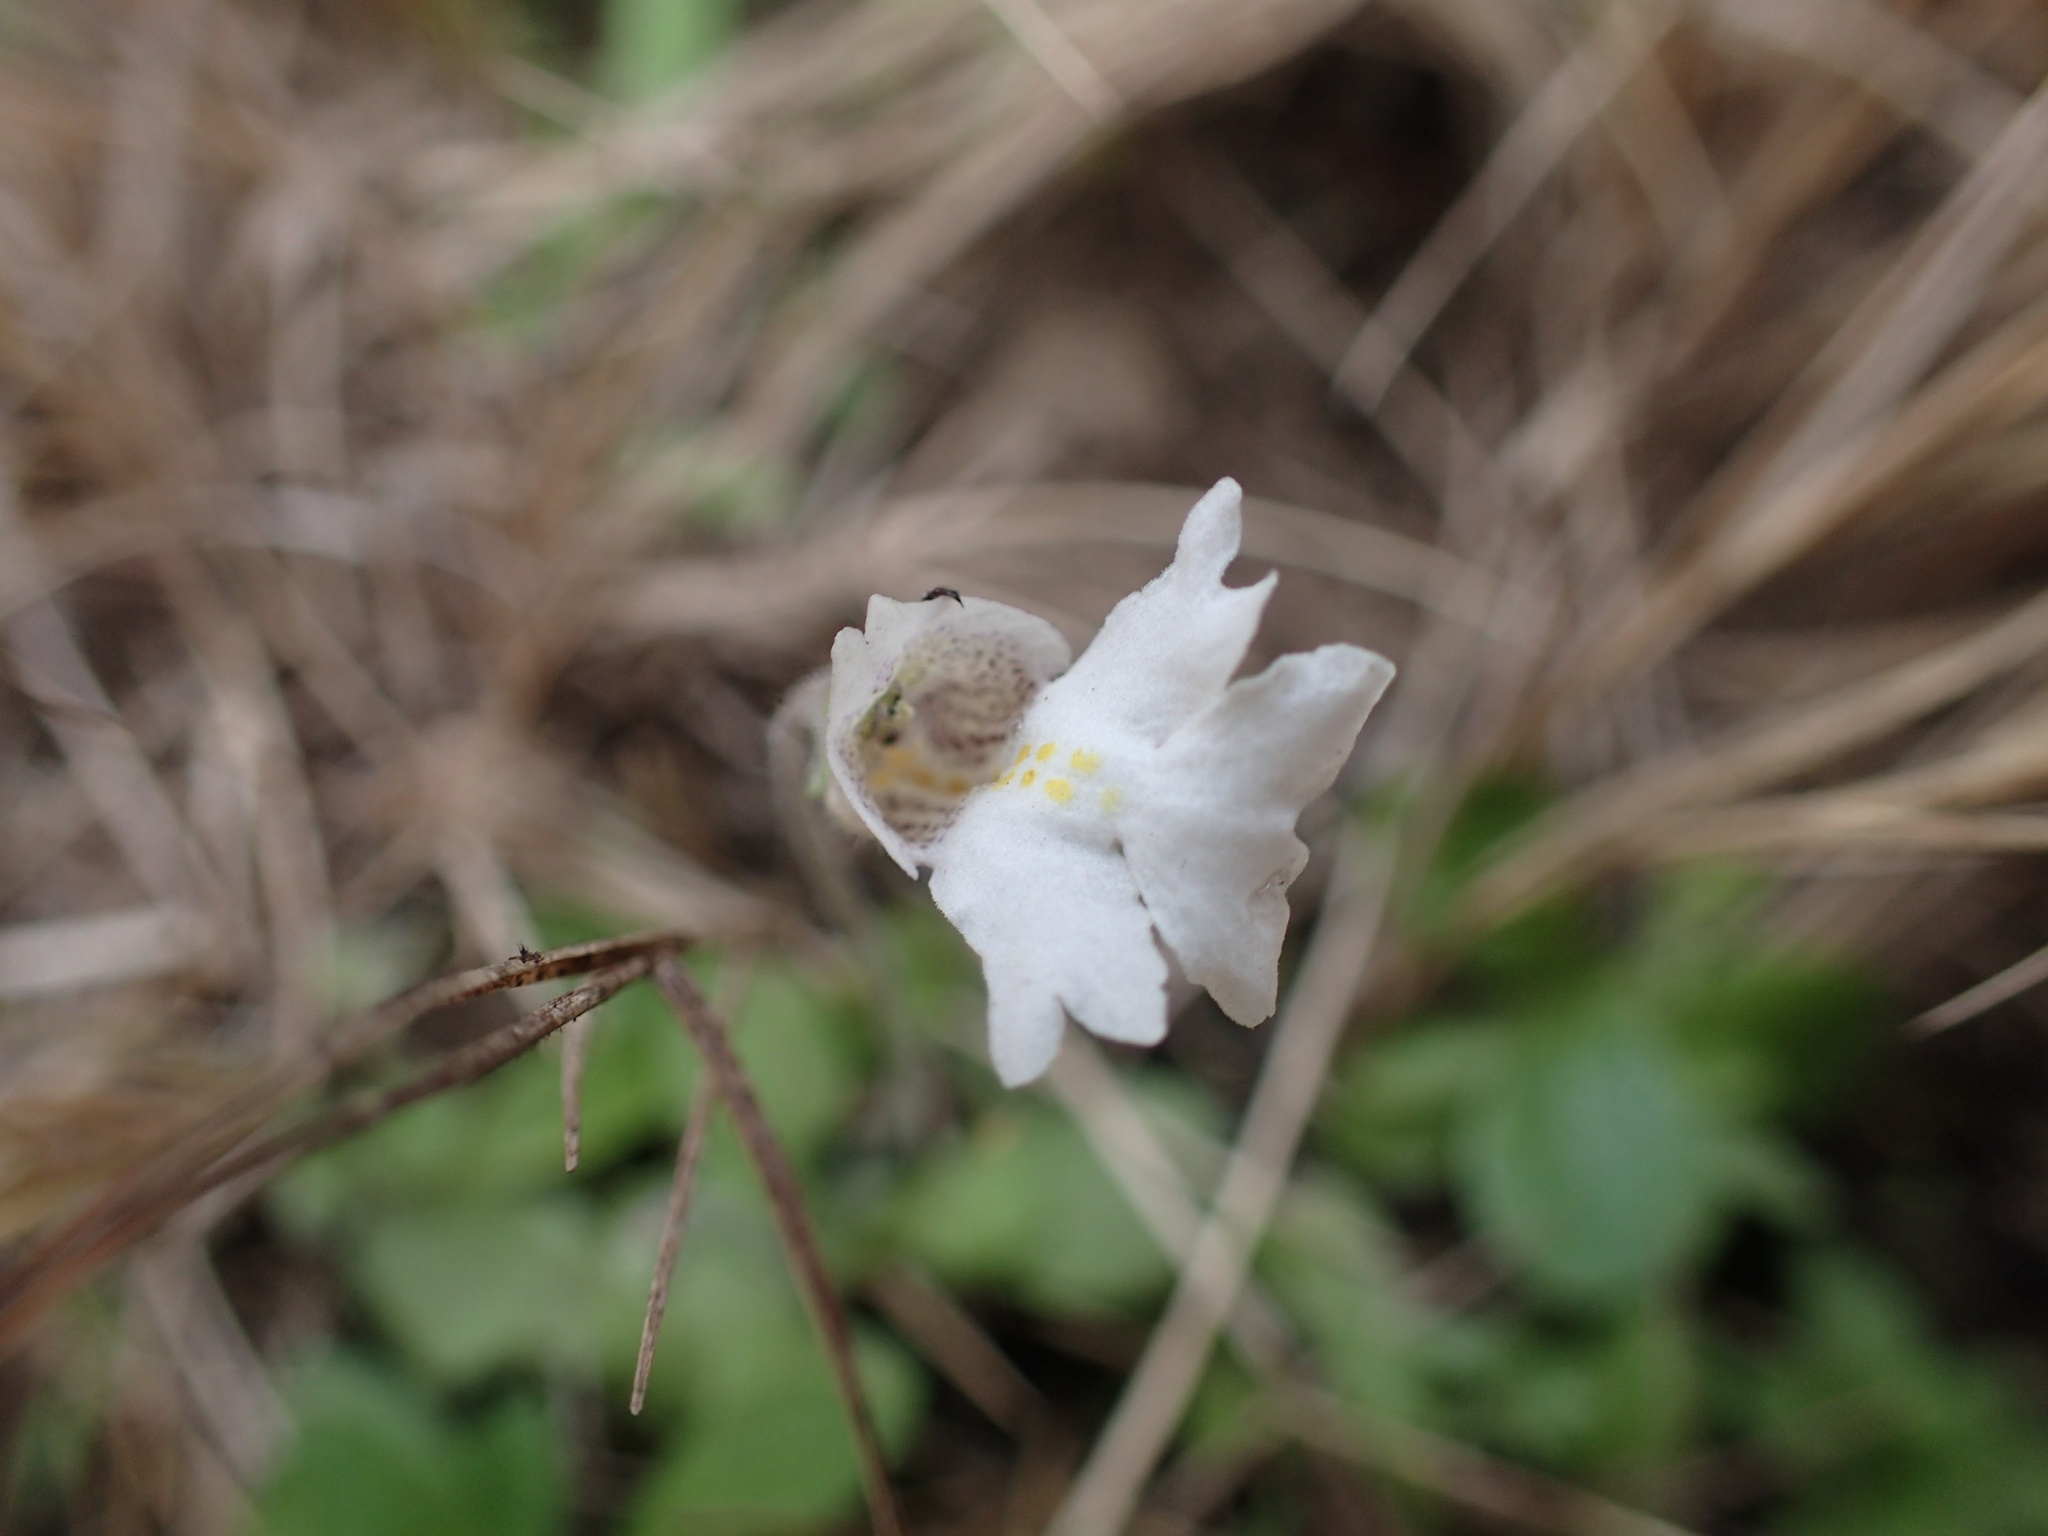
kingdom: Plantae
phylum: Tracheophyta
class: Magnoliopsida
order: Lamiales
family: Scrophulariaceae
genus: Diclis
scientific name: Diclis petiolaris
